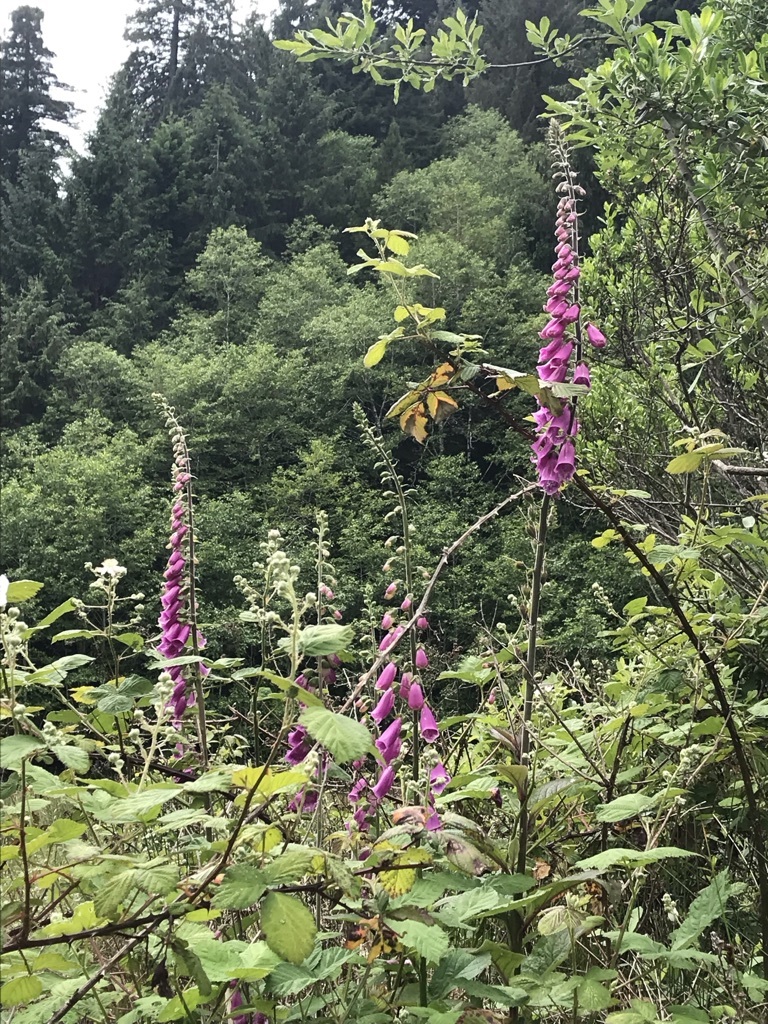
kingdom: Plantae
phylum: Tracheophyta
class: Magnoliopsida
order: Lamiales
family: Plantaginaceae
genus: Digitalis
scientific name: Digitalis purpurea
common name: Foxglove
